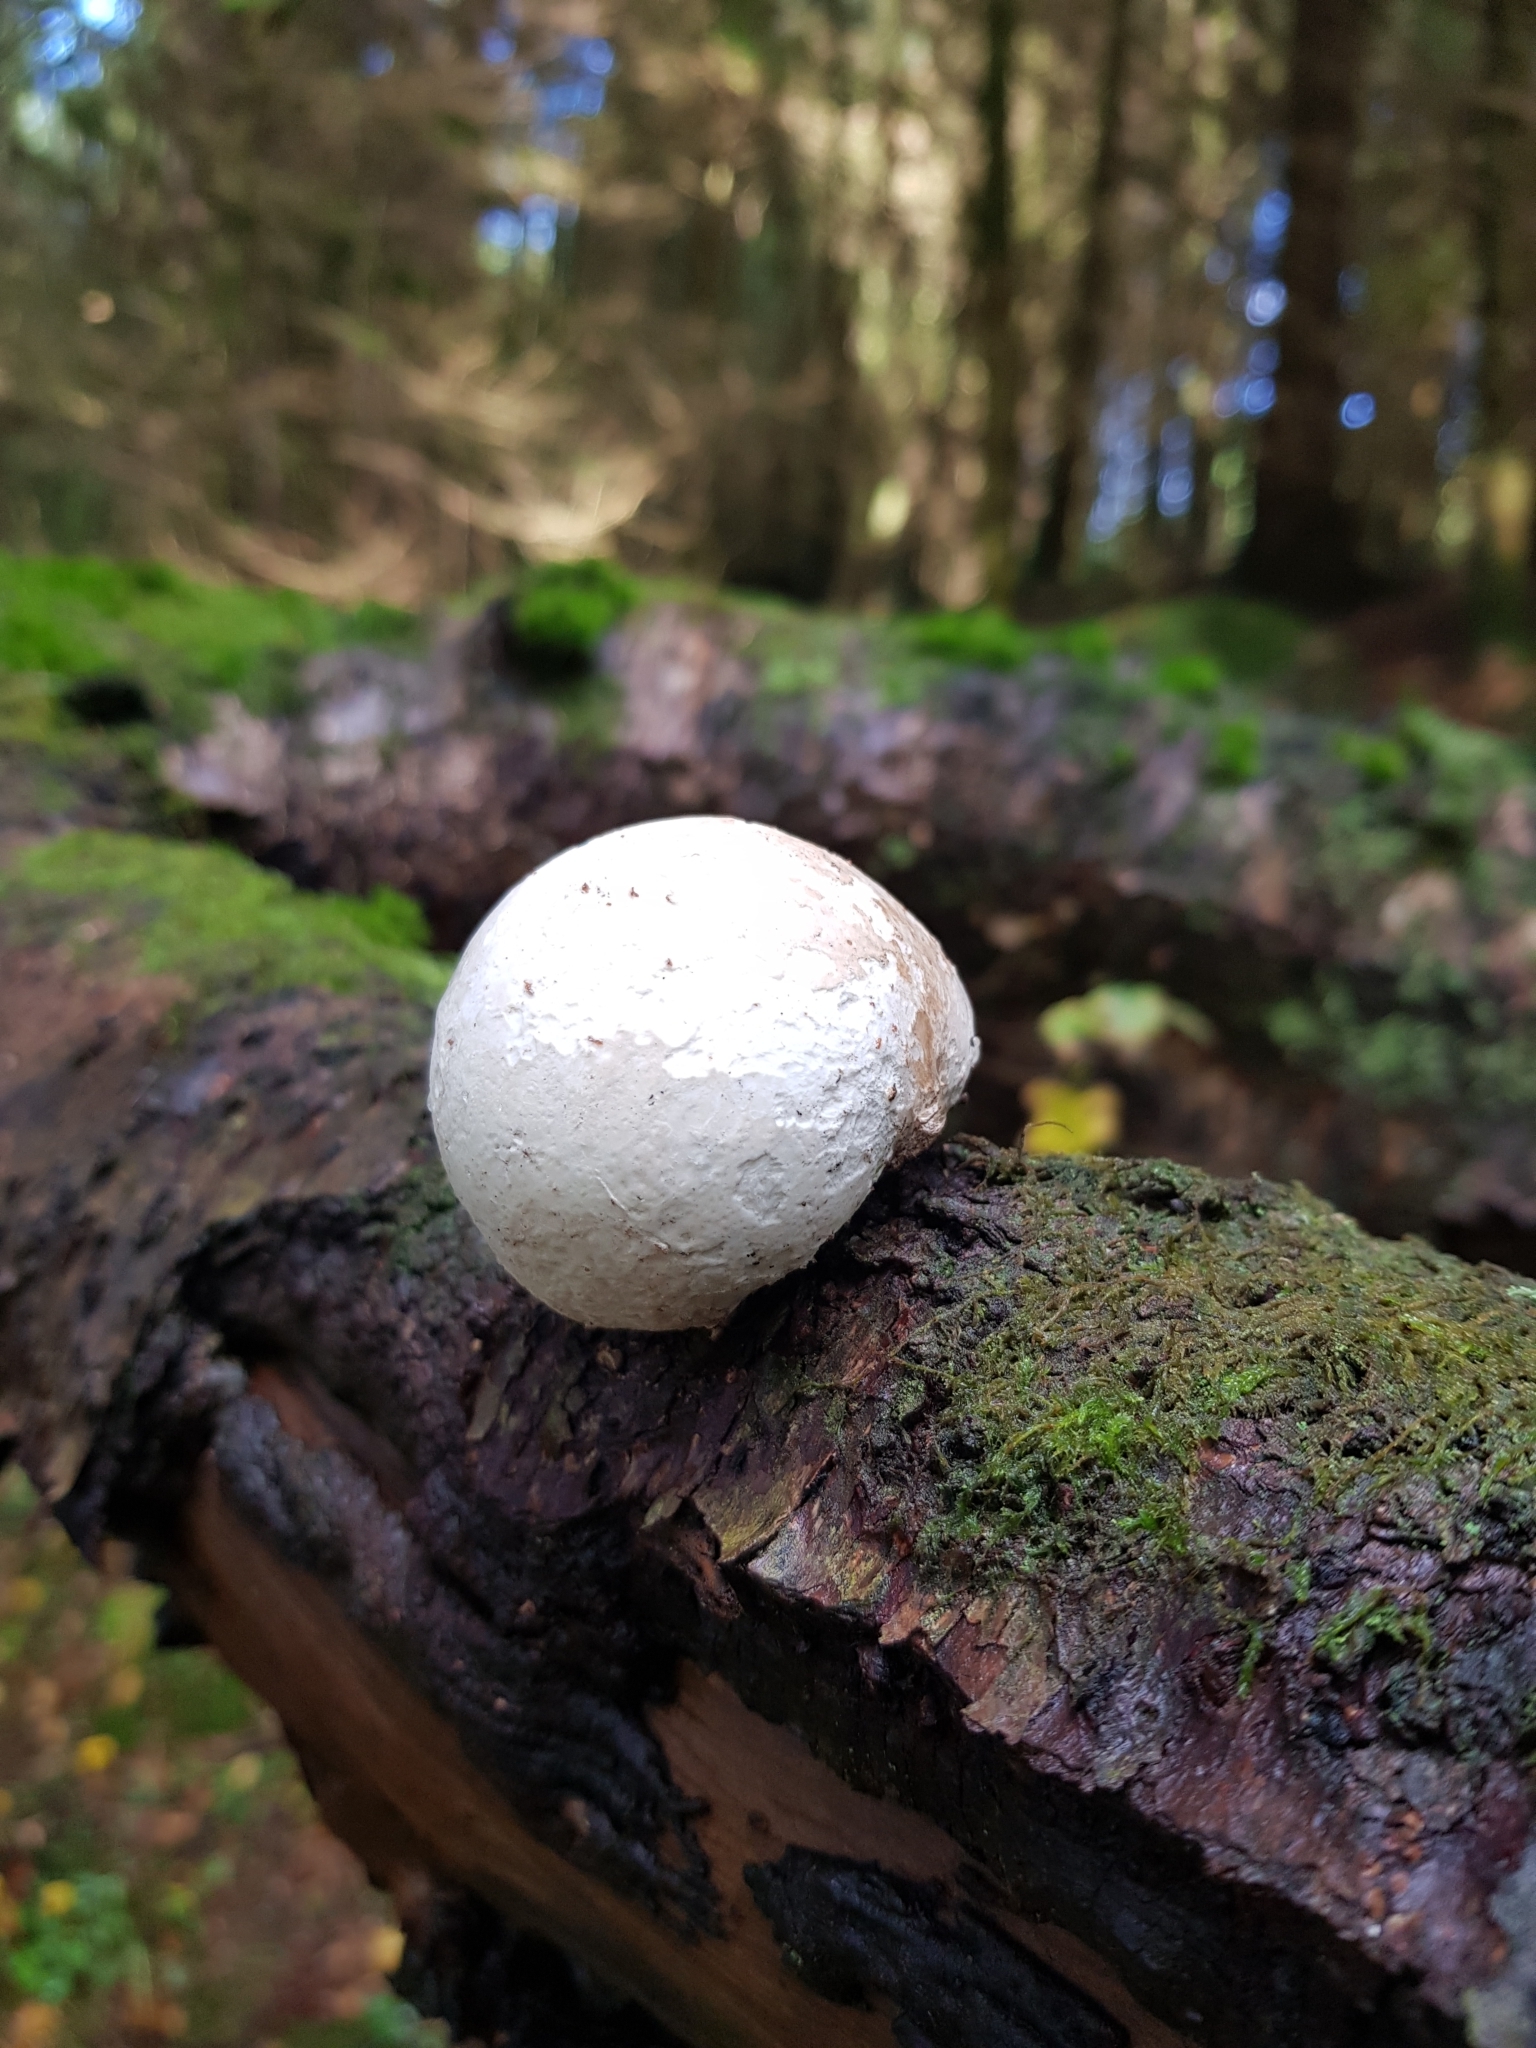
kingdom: Fungi
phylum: Basidiomycota
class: Agaricomycetes
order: Polyporales
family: Fomitopsidaceae
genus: Fomitopsis
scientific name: Fomitopsis betulina
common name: Birch polypore
